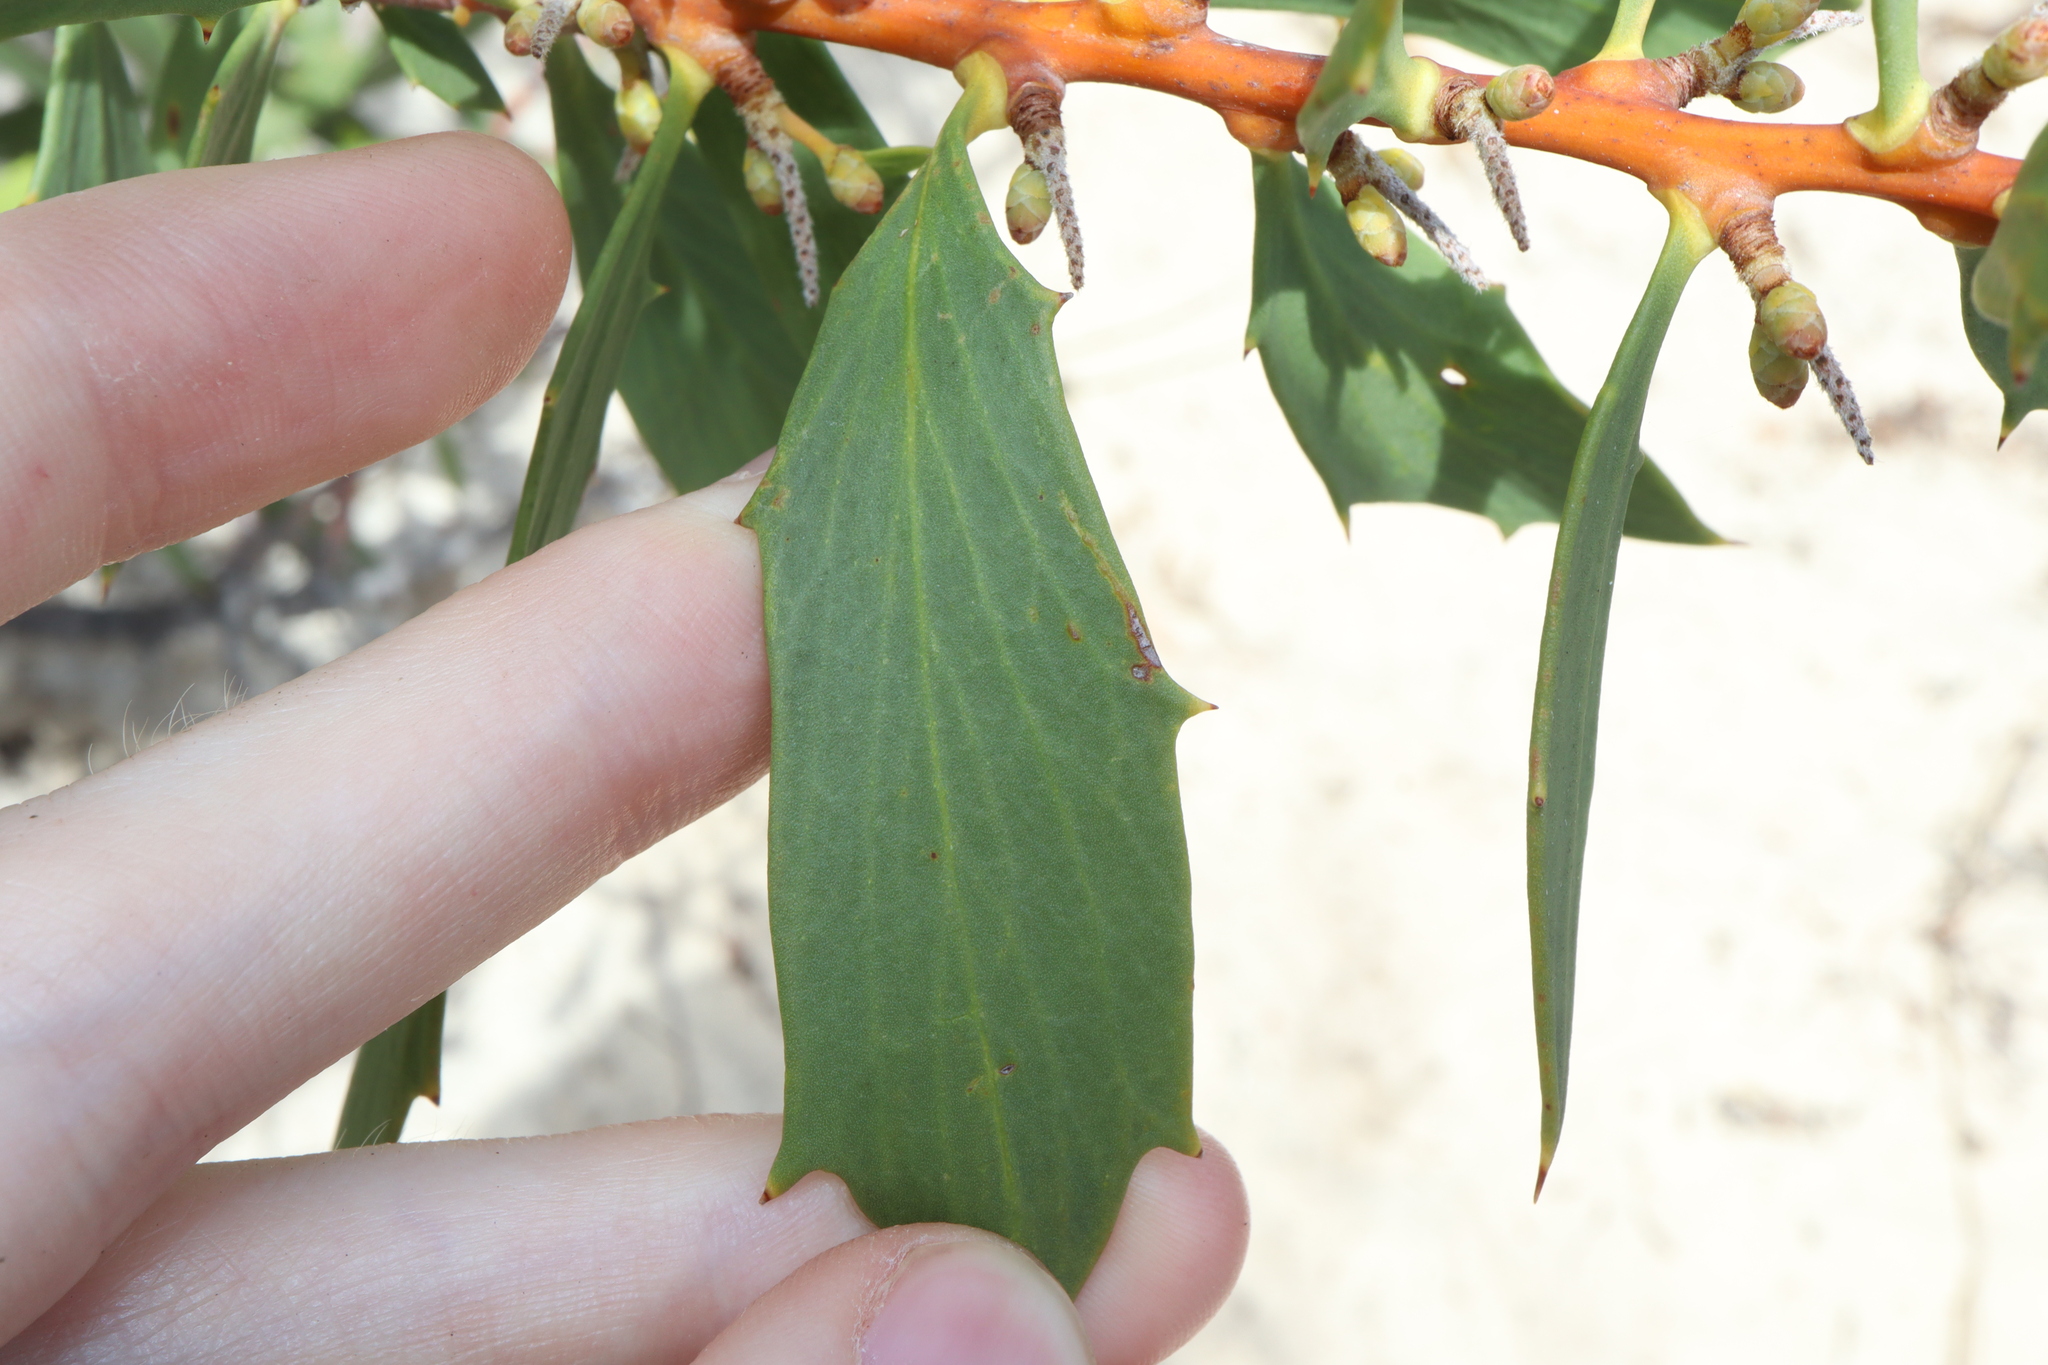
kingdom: Plantae
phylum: Tracheophyta
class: Magnoliopsida
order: Proteales
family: Proteaceae
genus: Hakea
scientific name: Hakea nitida
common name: Frog hakea
